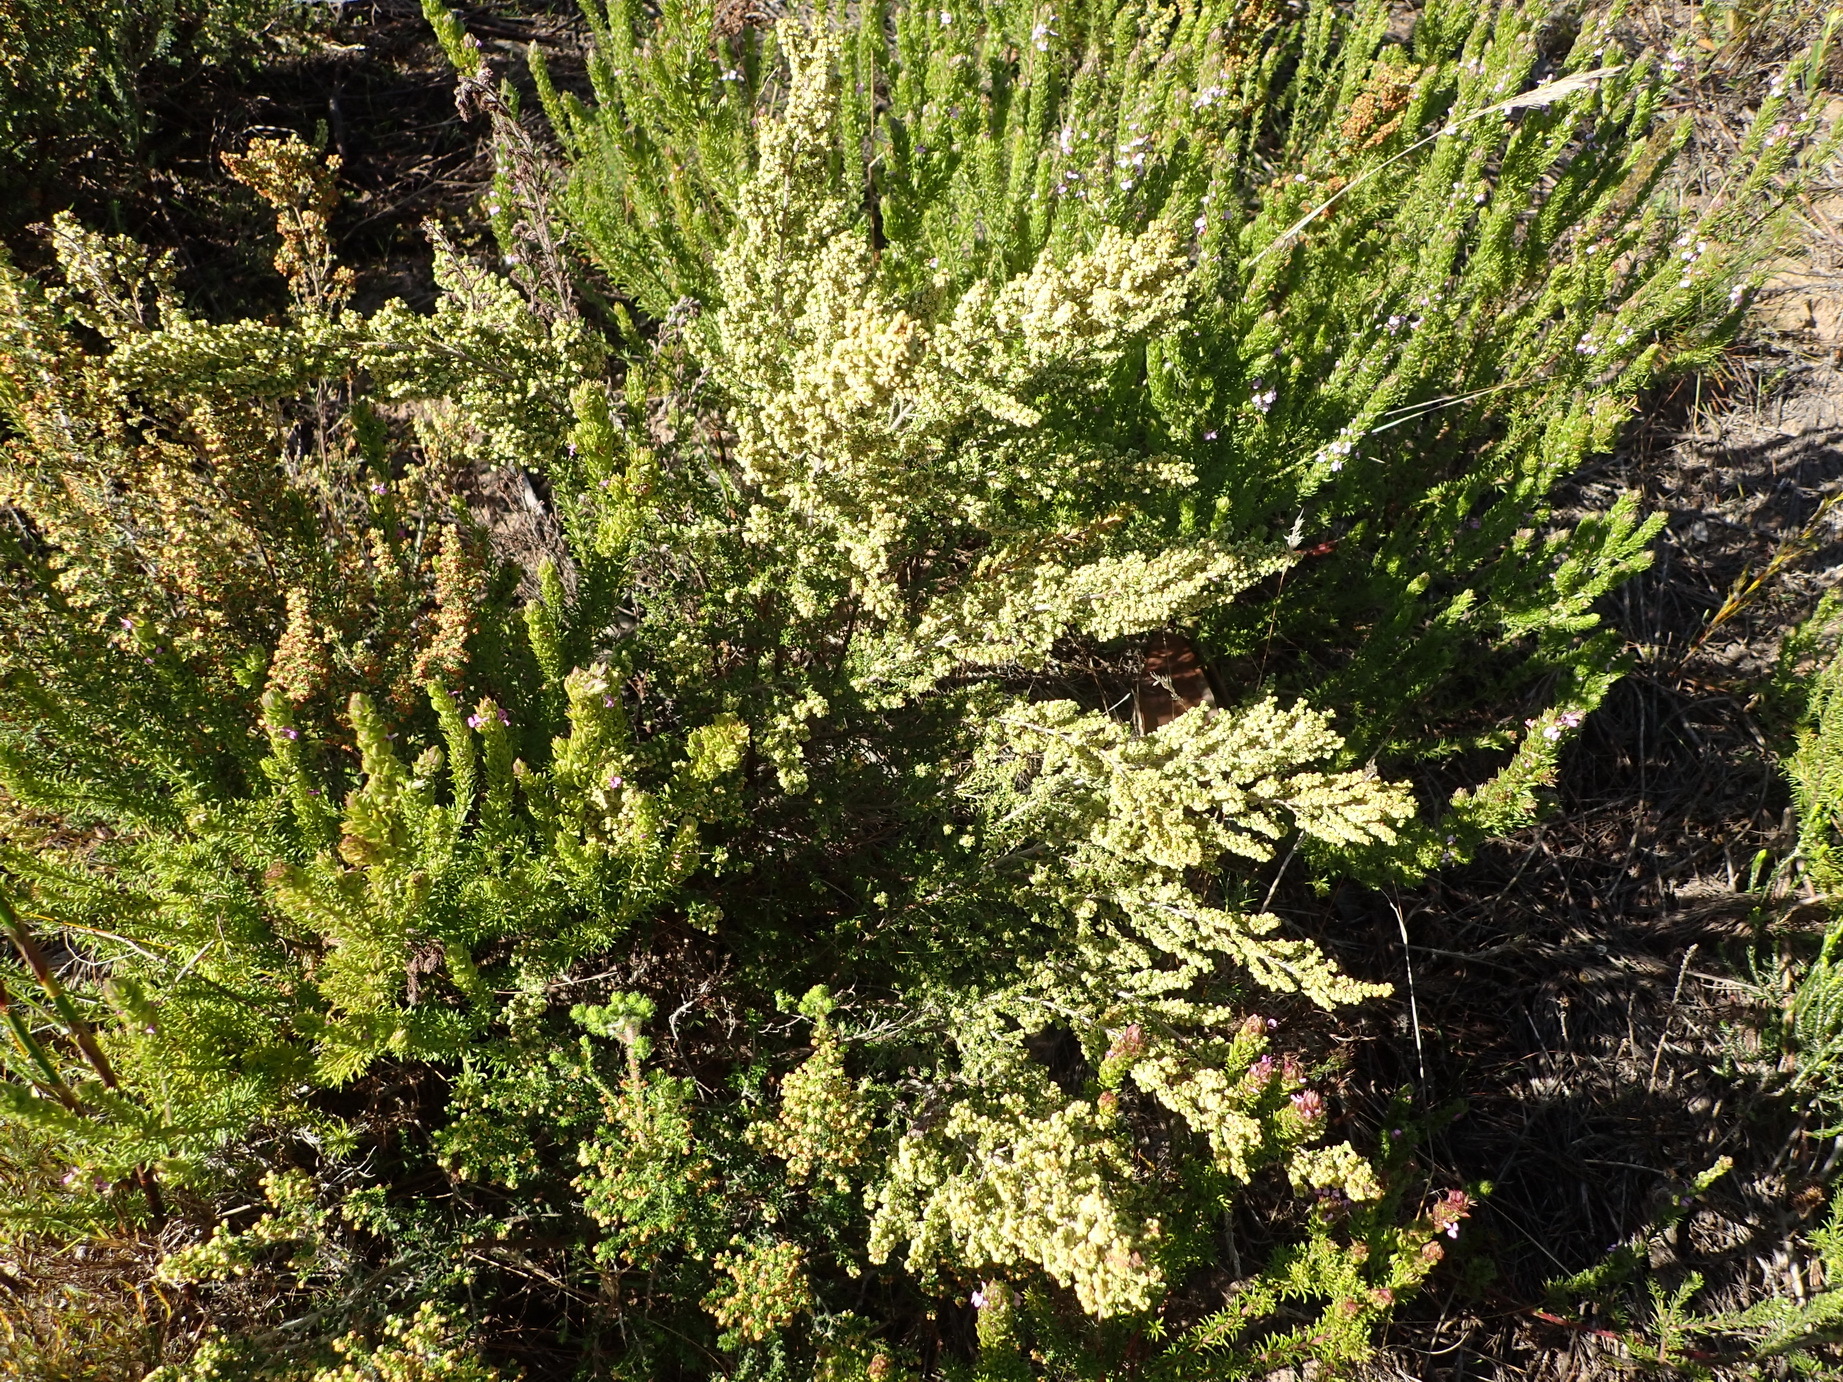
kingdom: Plantae
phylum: Tracheophyta
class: Magnoliopsida
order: Ericales
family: Ericaceae
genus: Erica
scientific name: Erica leucopelta
